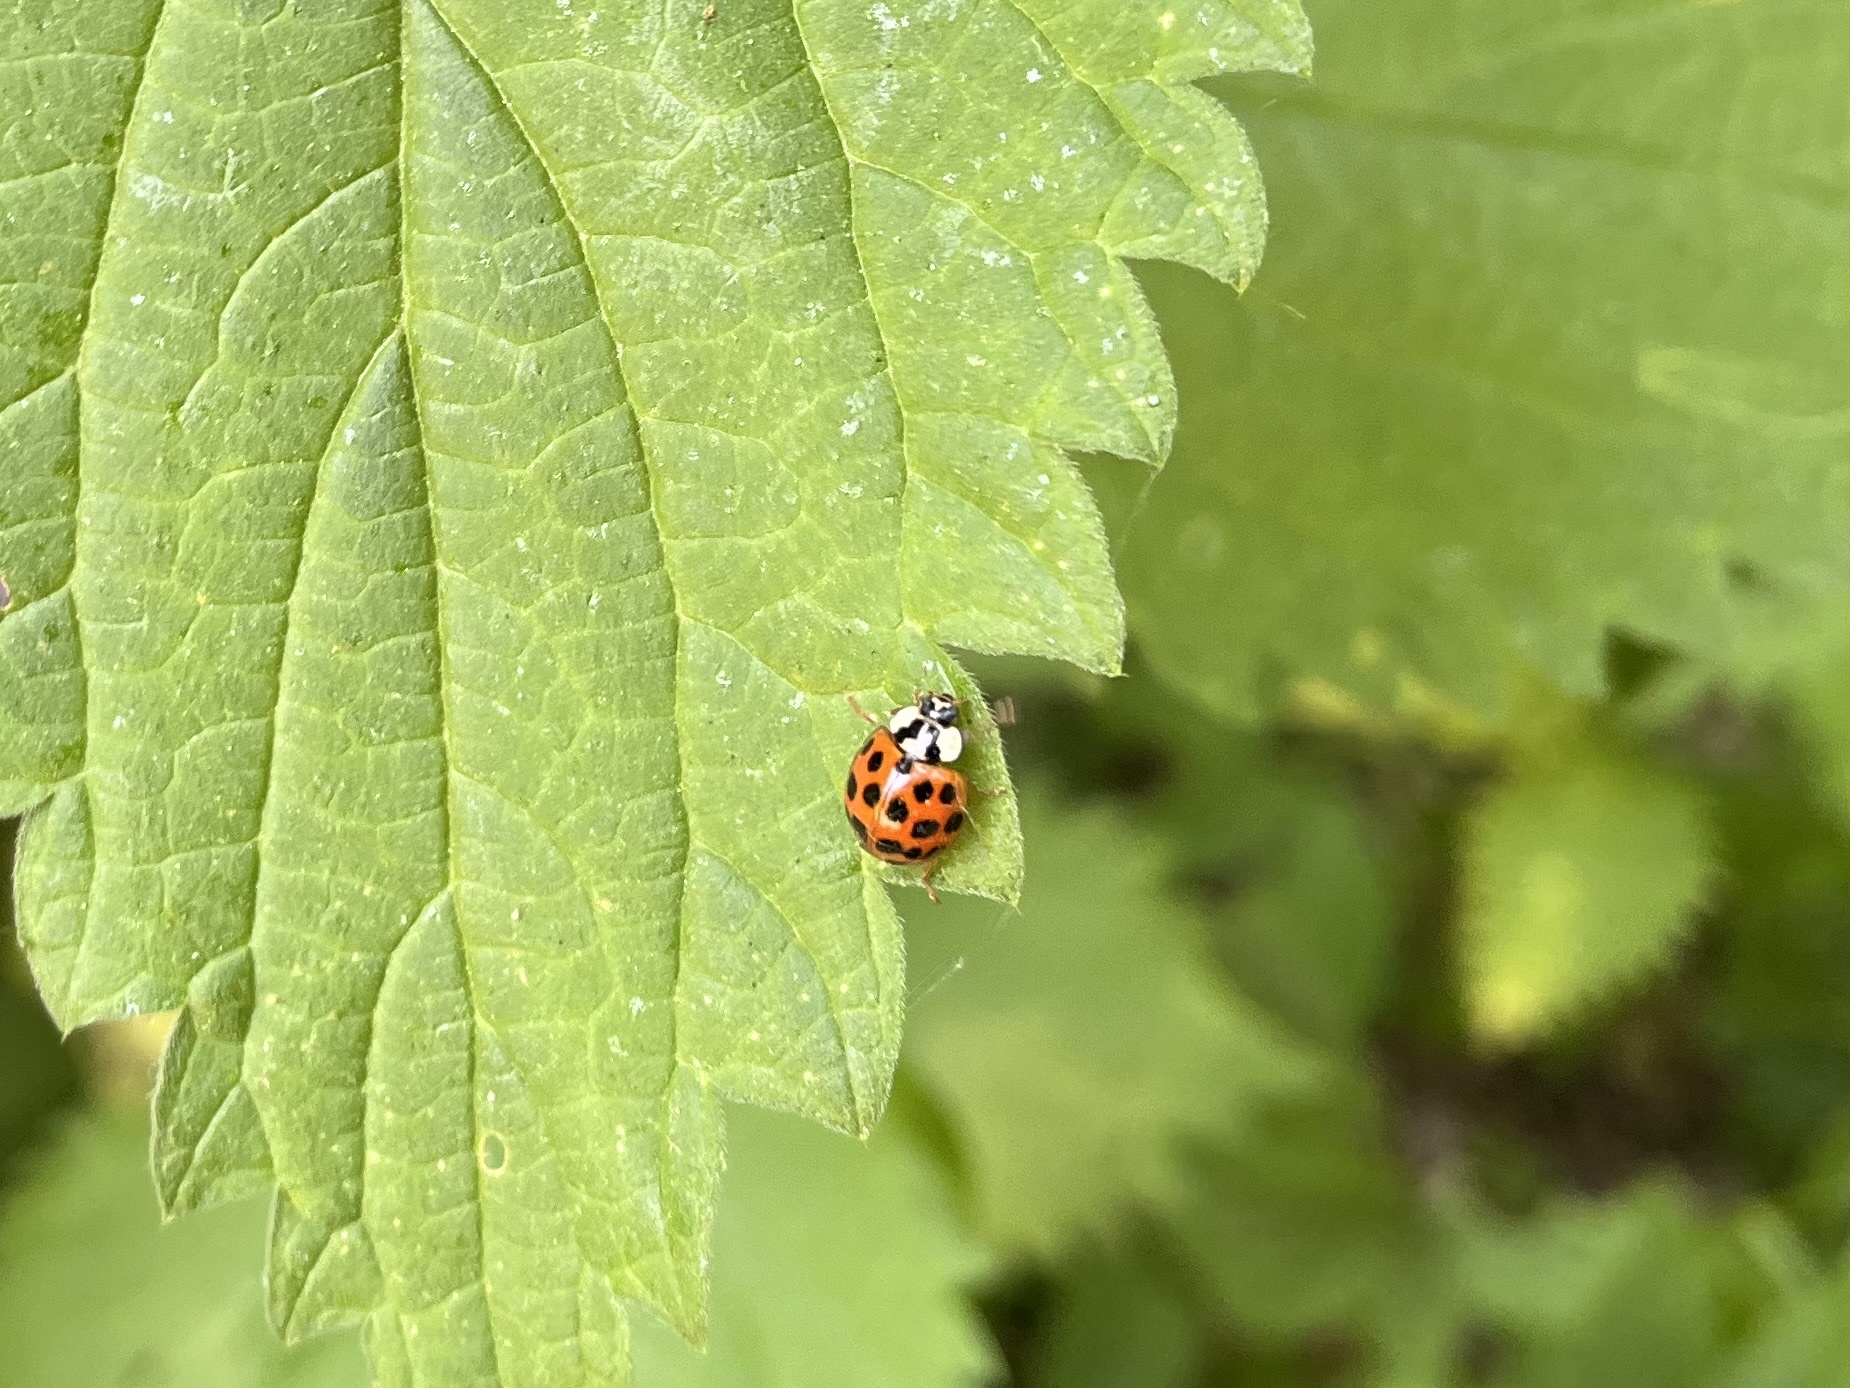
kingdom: Animalia
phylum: Arthropoda
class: Insecta
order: Coleoptera
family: Coccinellidae
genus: Harmonia
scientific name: Harmonia axyridis
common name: Harlequin ladybird
